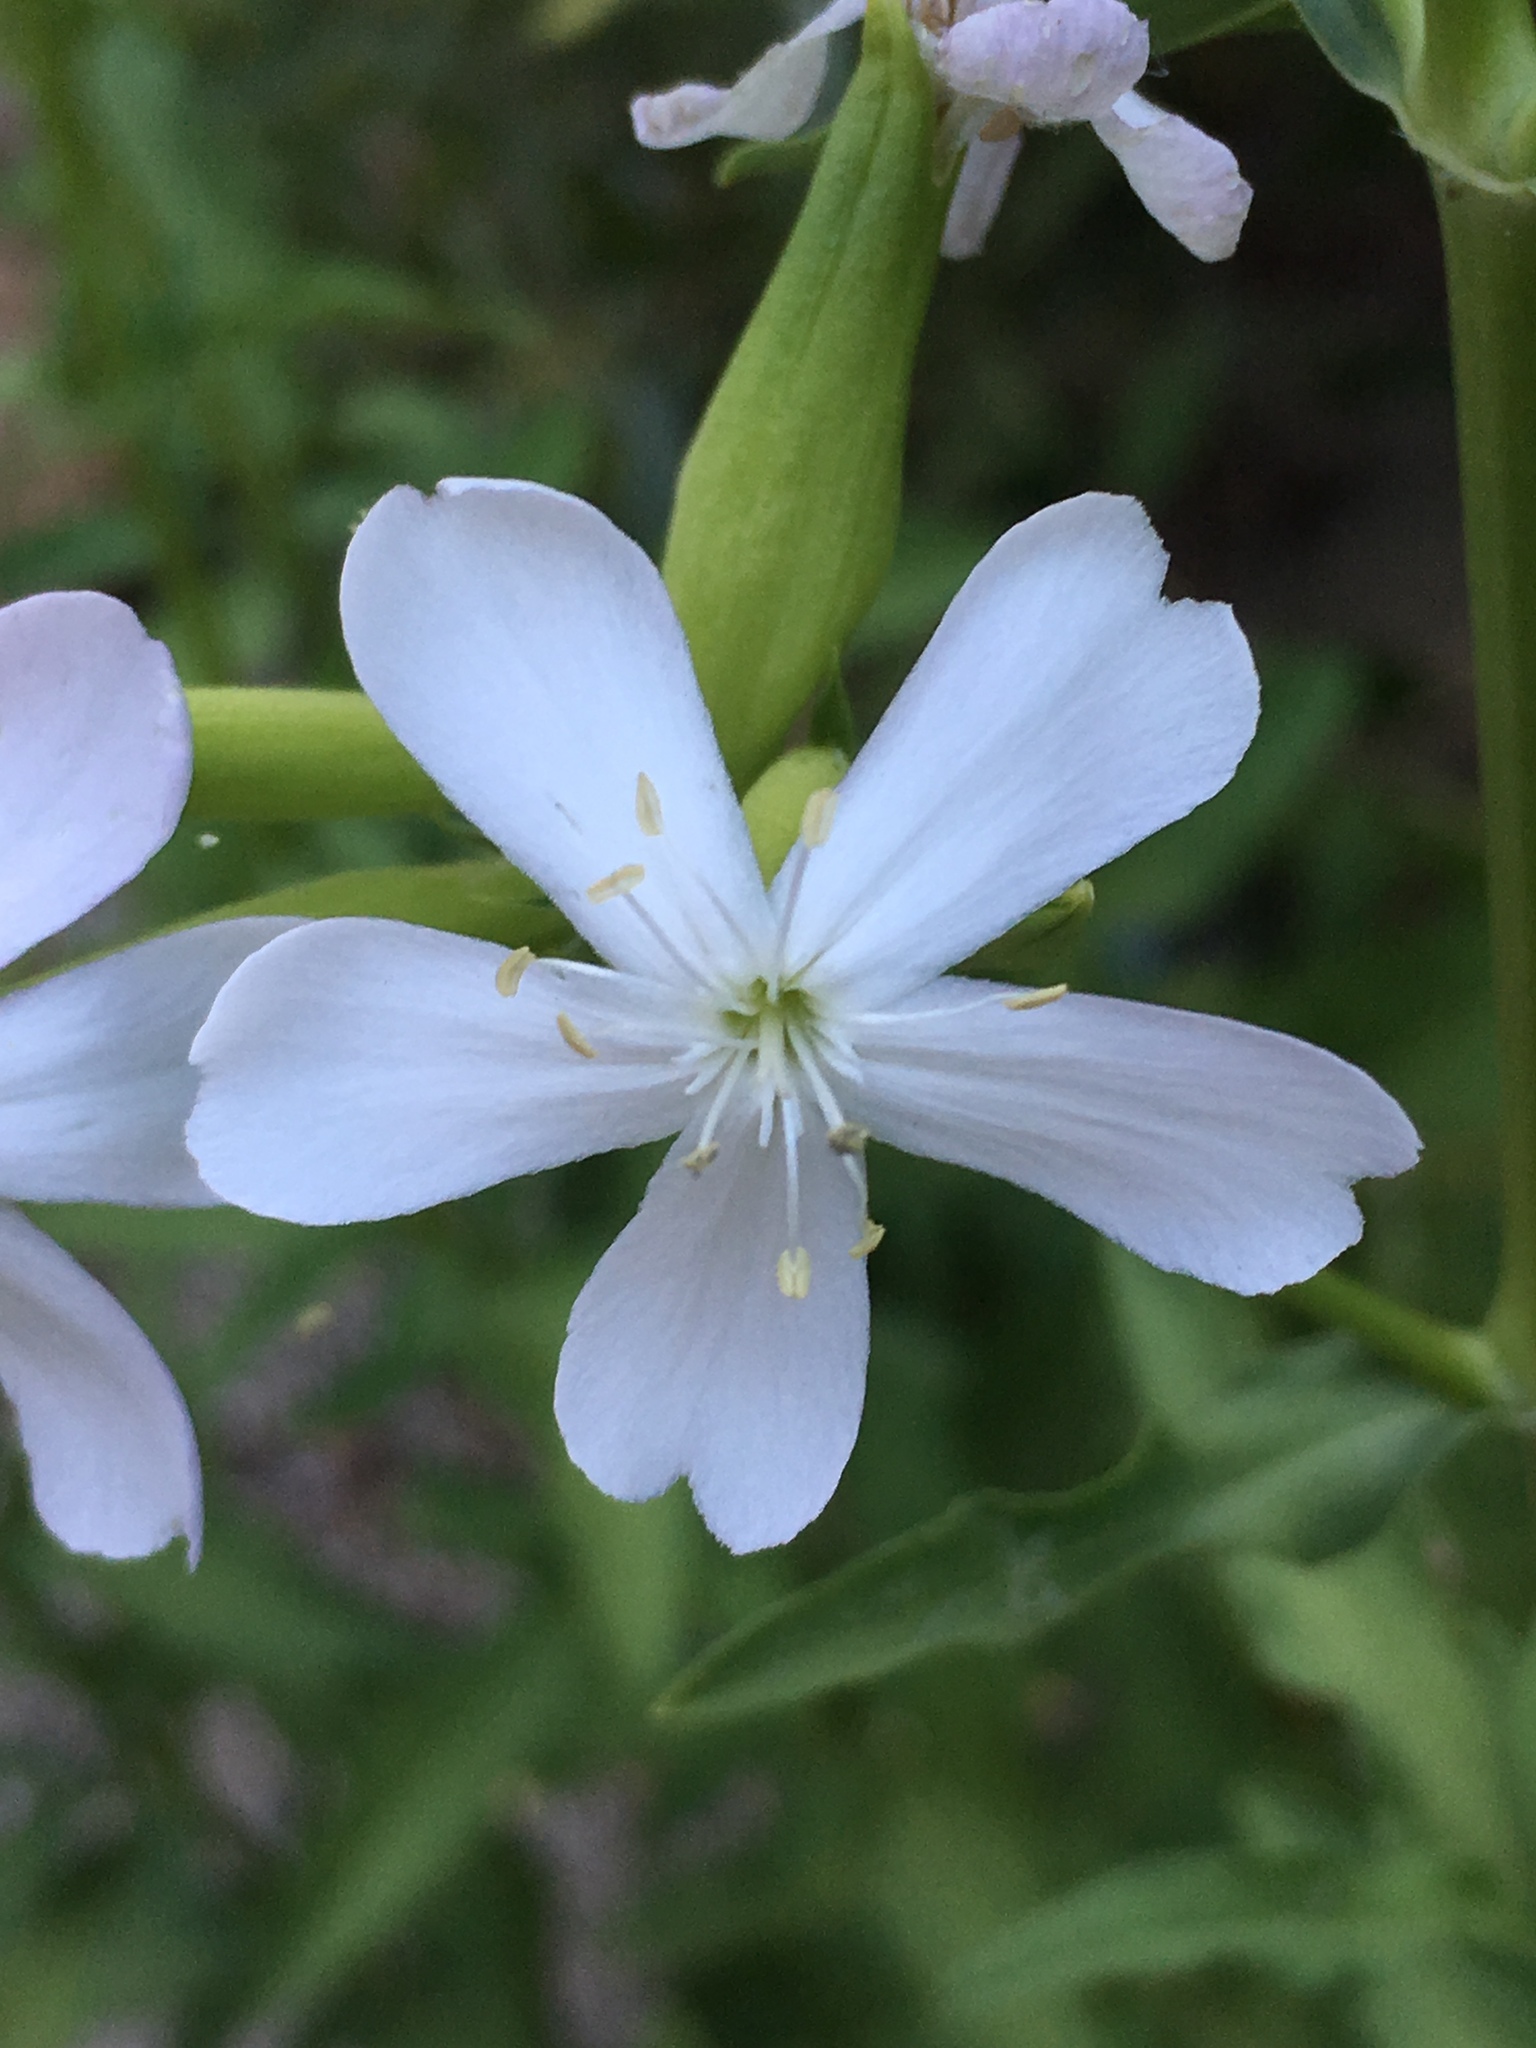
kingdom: Plantae
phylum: Tracheophyta
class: Magnoliopsida
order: Caryophyllales
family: Caryophyllaceae
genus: Saponaria
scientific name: Saponaria officinalis
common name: Soapwort
